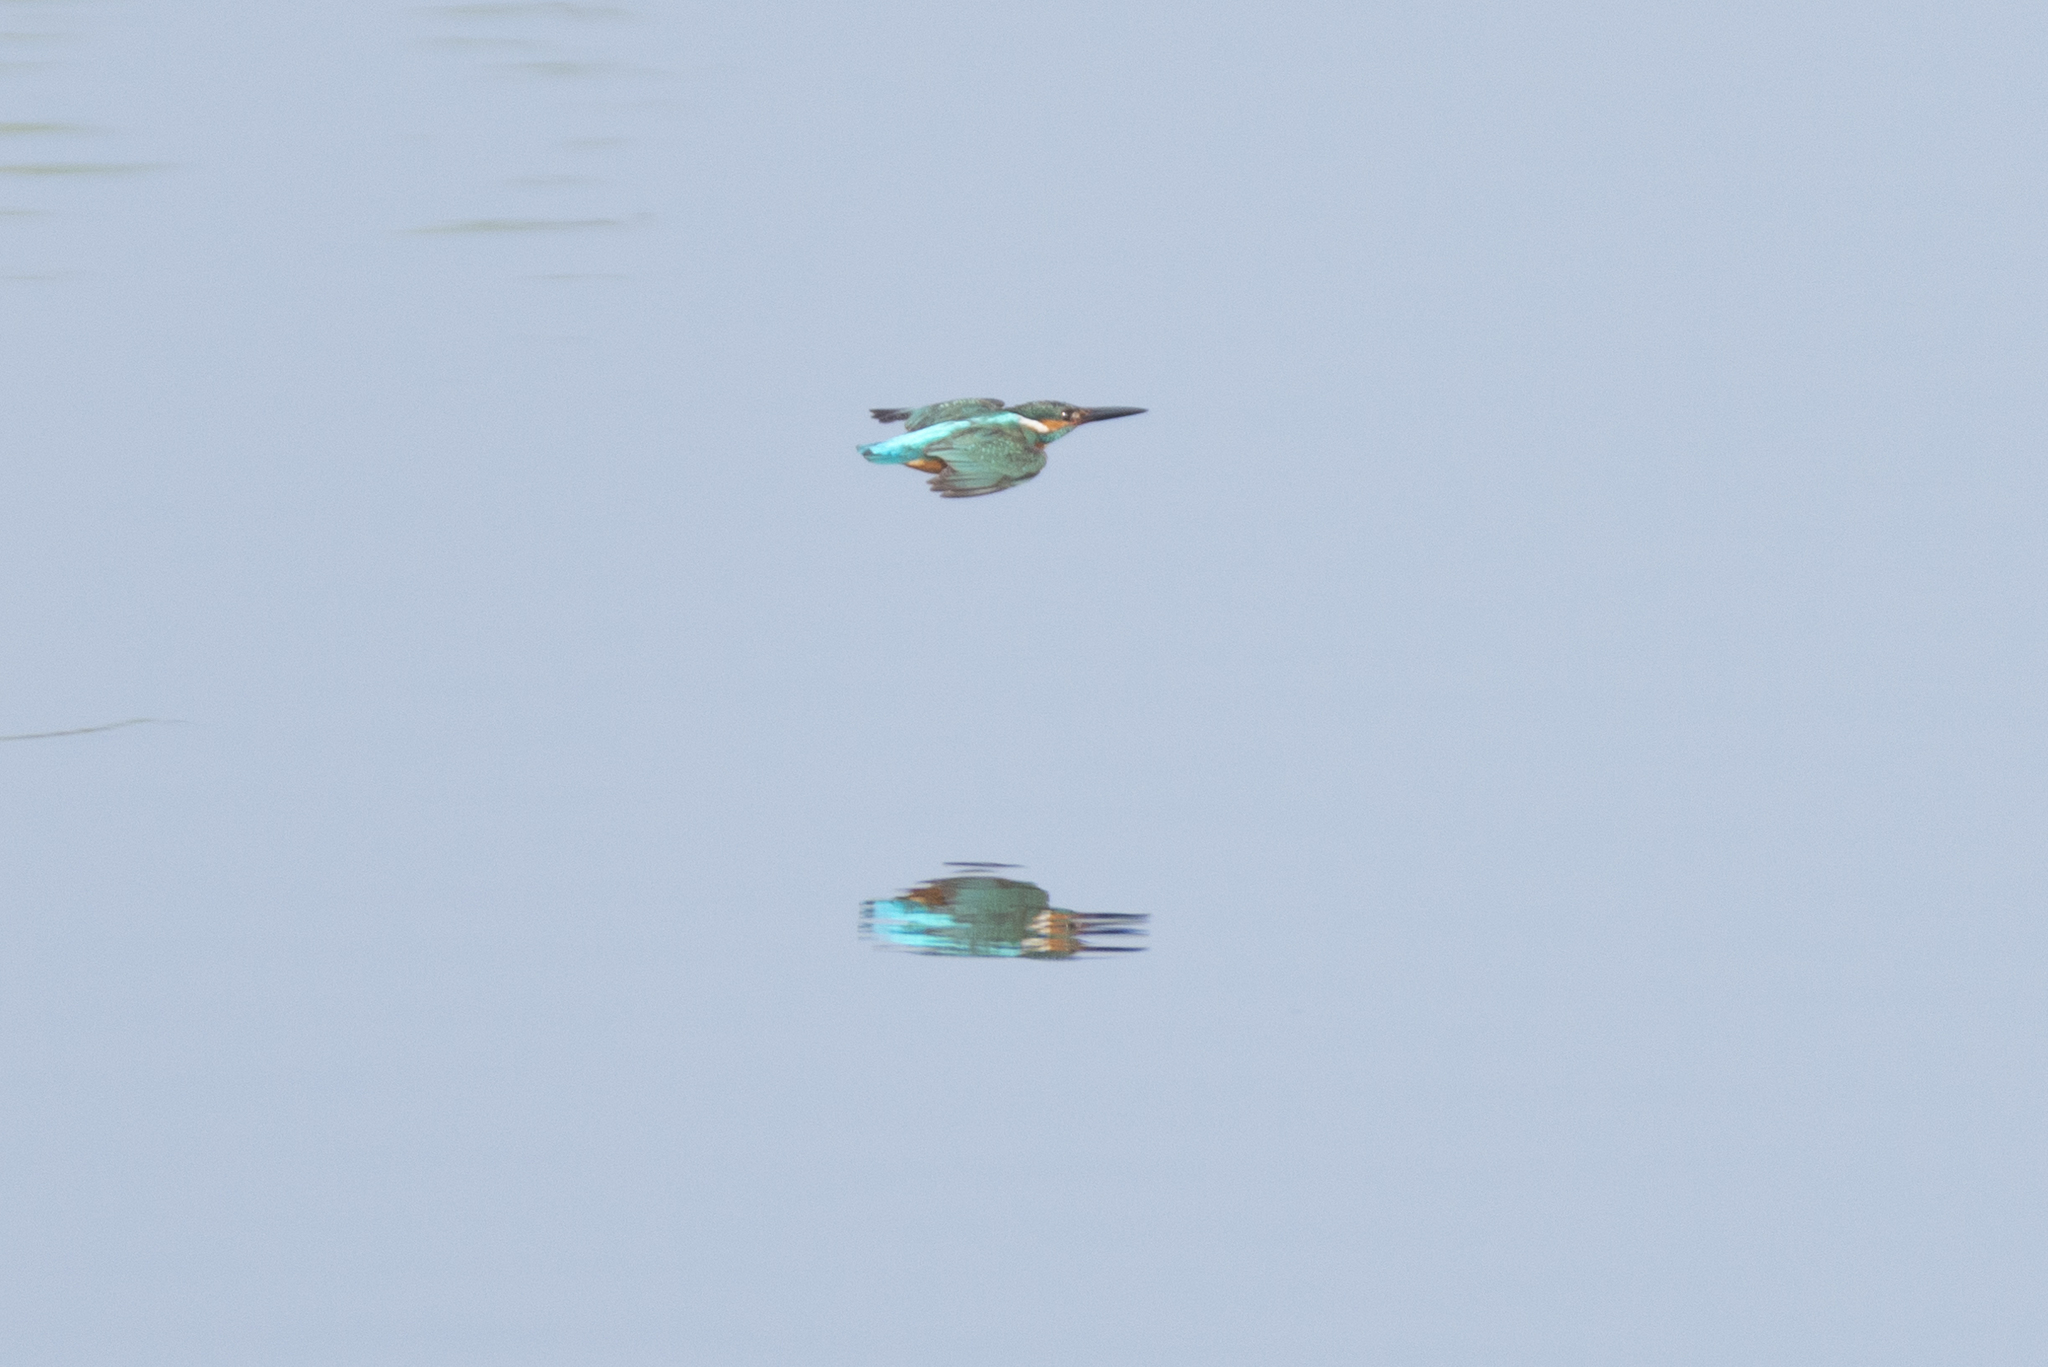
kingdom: Animalia
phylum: Chordata
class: Aves
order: Coraciiformes
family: Alcedinidae
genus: Alcedo
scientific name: Alcedo atthis
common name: Common kingfisher
